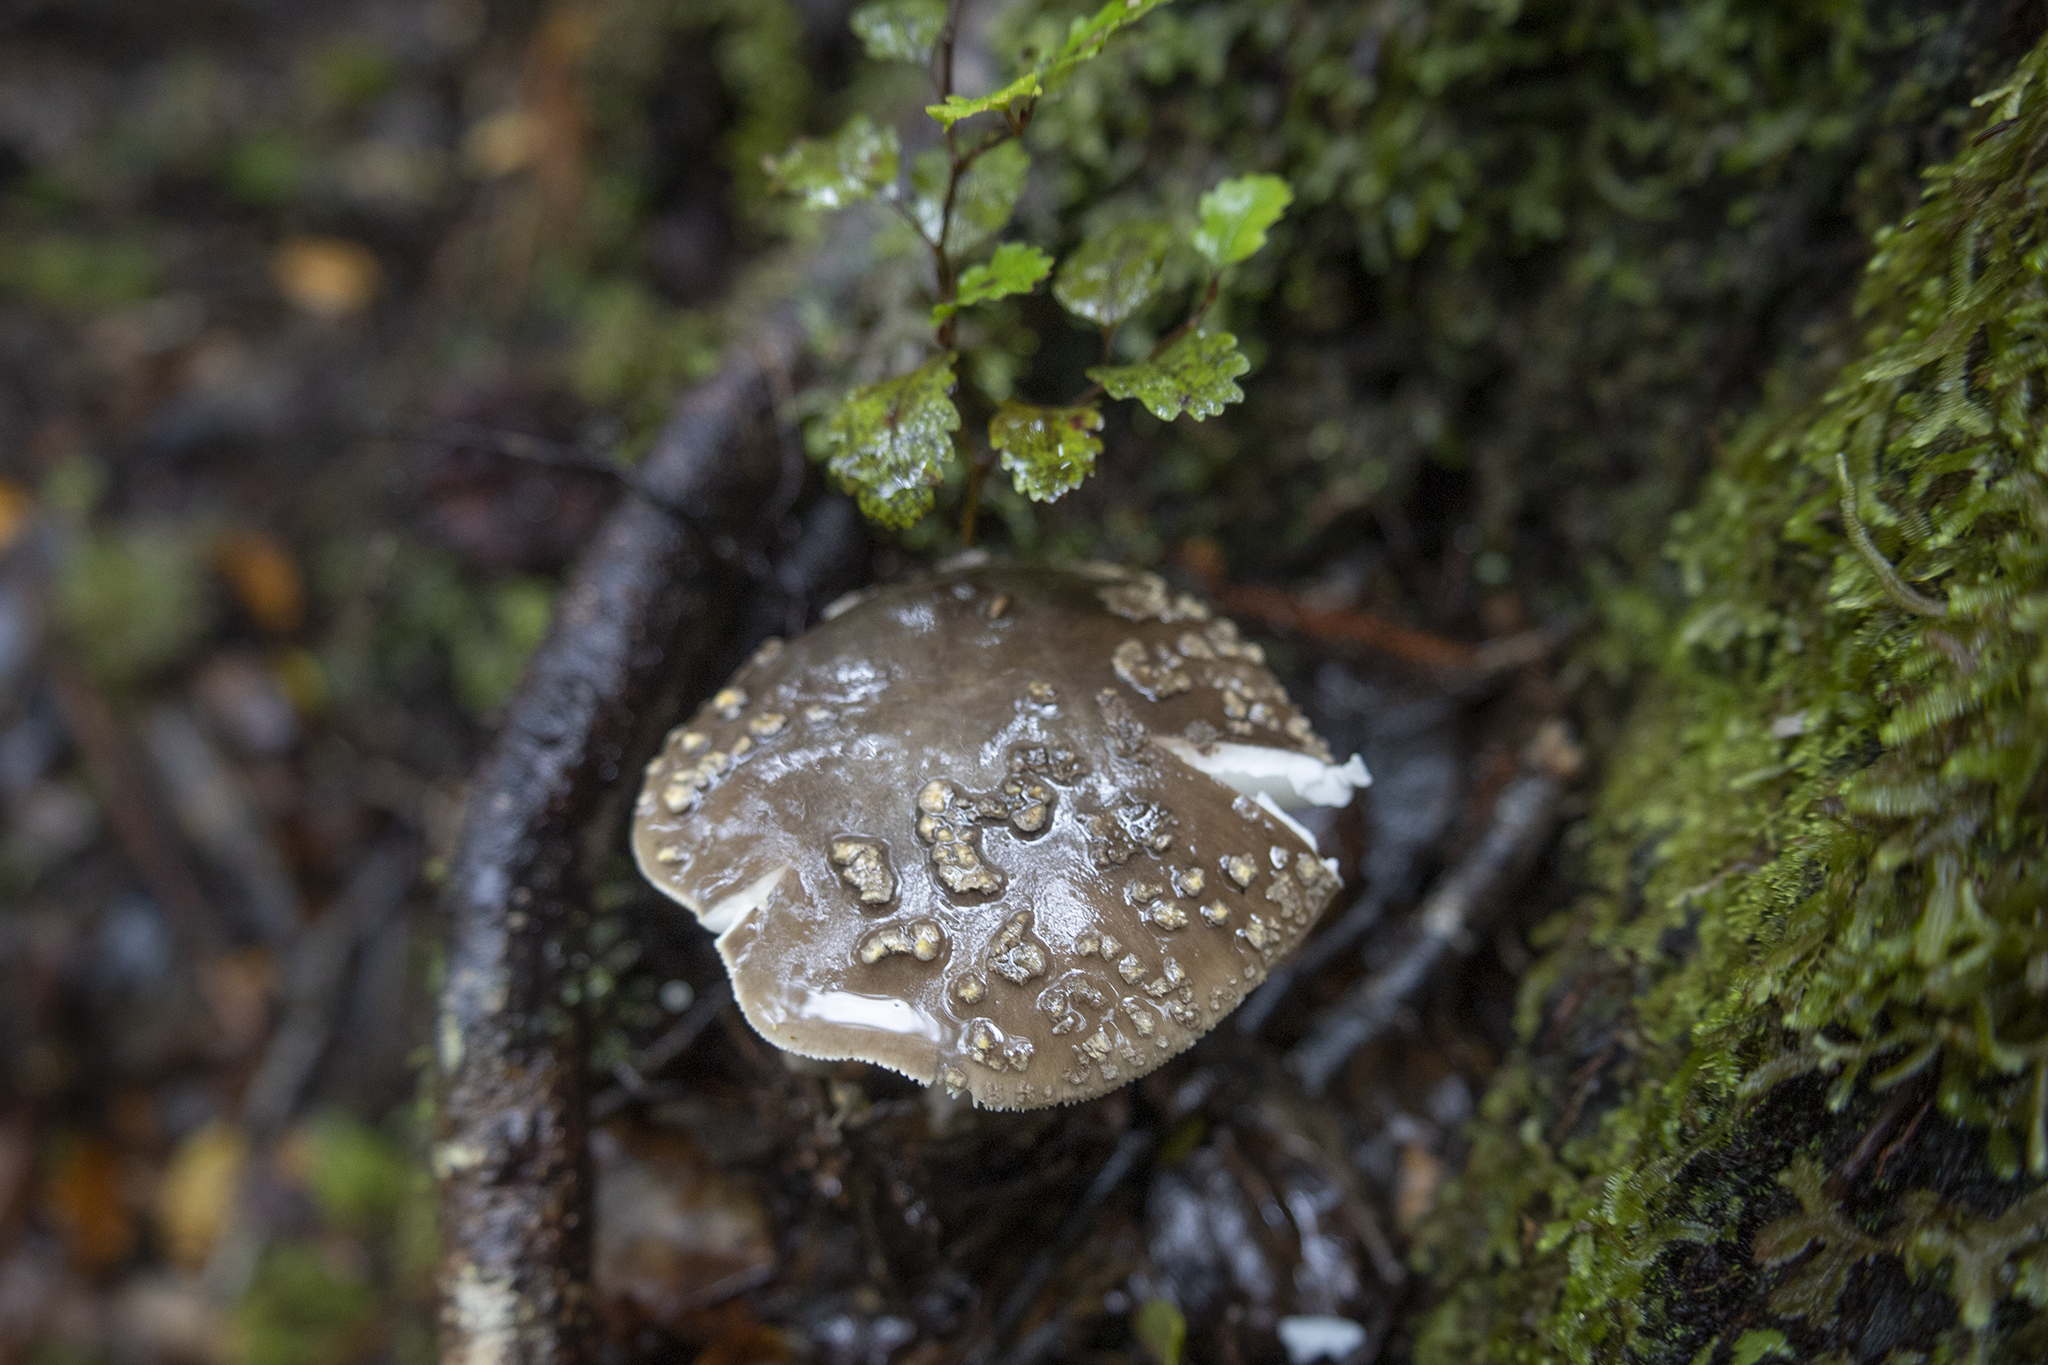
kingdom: Fungi
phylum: Basidiomycota
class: Agaricomycetes
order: Agaricales
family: Amanitaceae
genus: Amanita
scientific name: Amanita nothofagi
